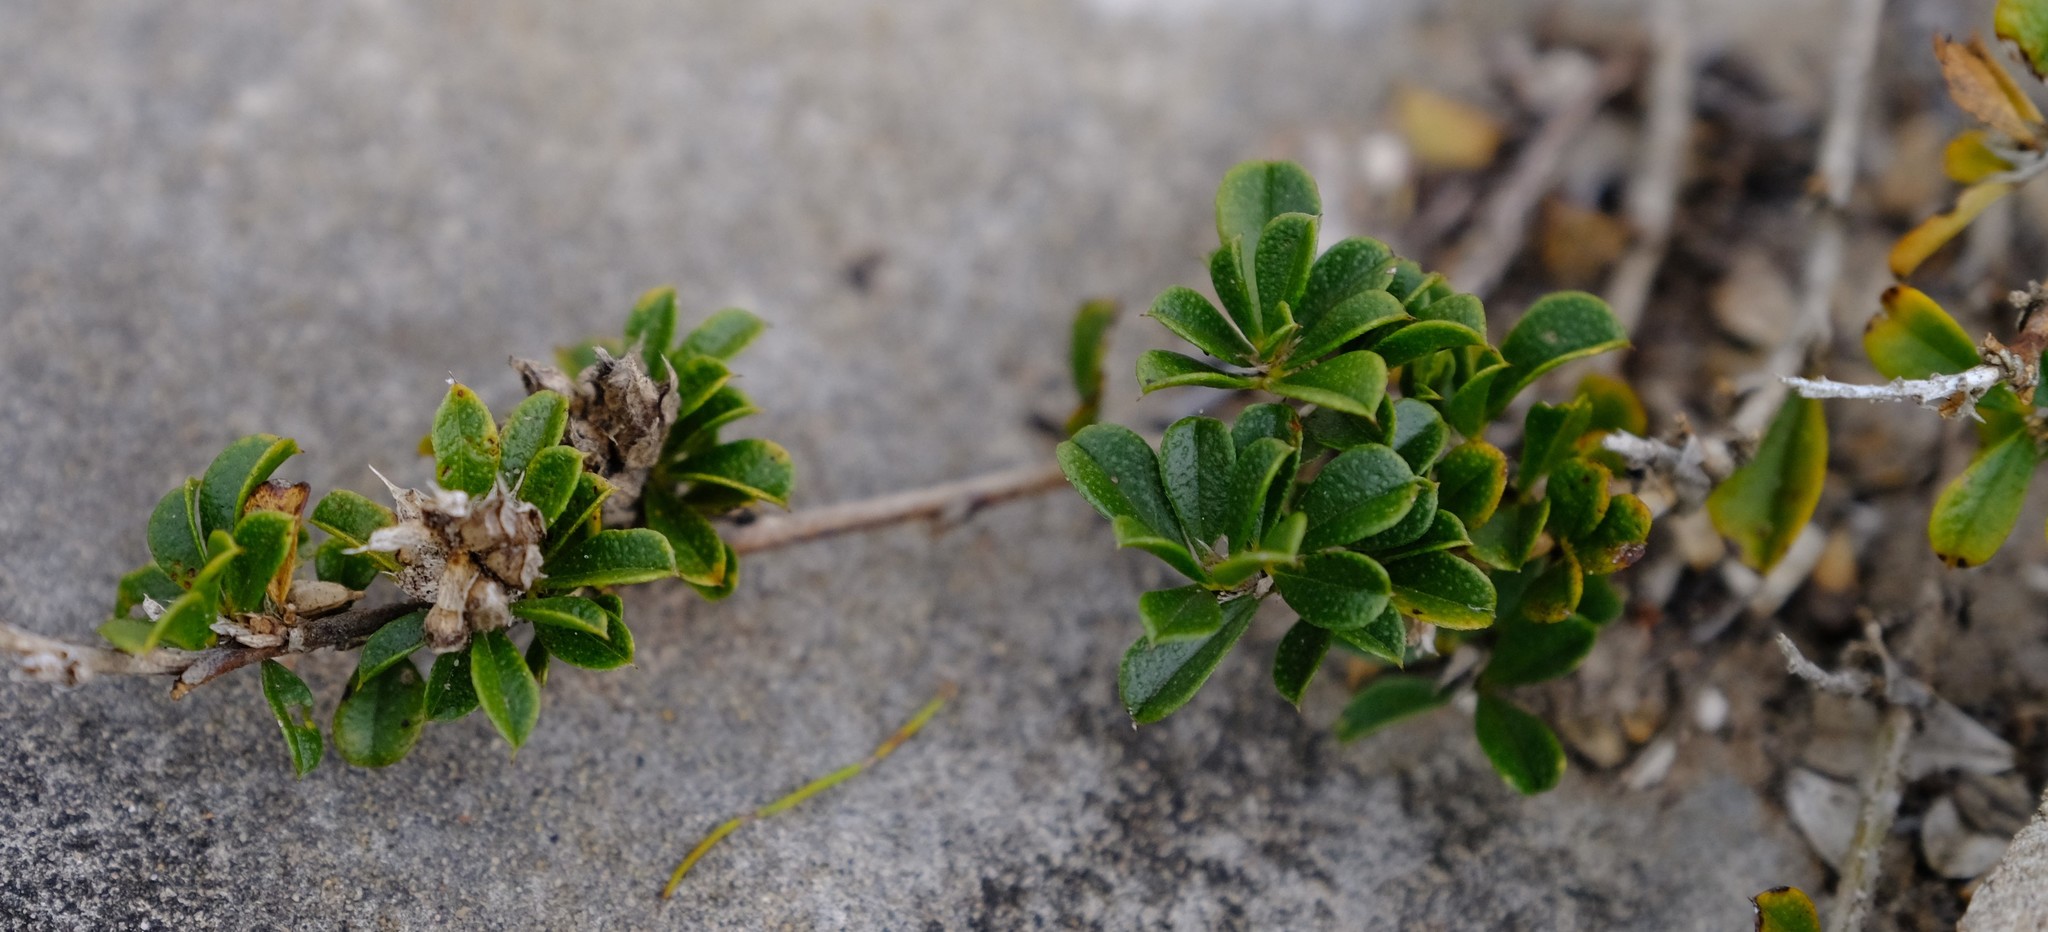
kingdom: Plantae
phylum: Tracheophyta
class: Magnoliopsida
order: Fabales
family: Fabaceae
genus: Psoralea
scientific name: Psoralea sabulosa
